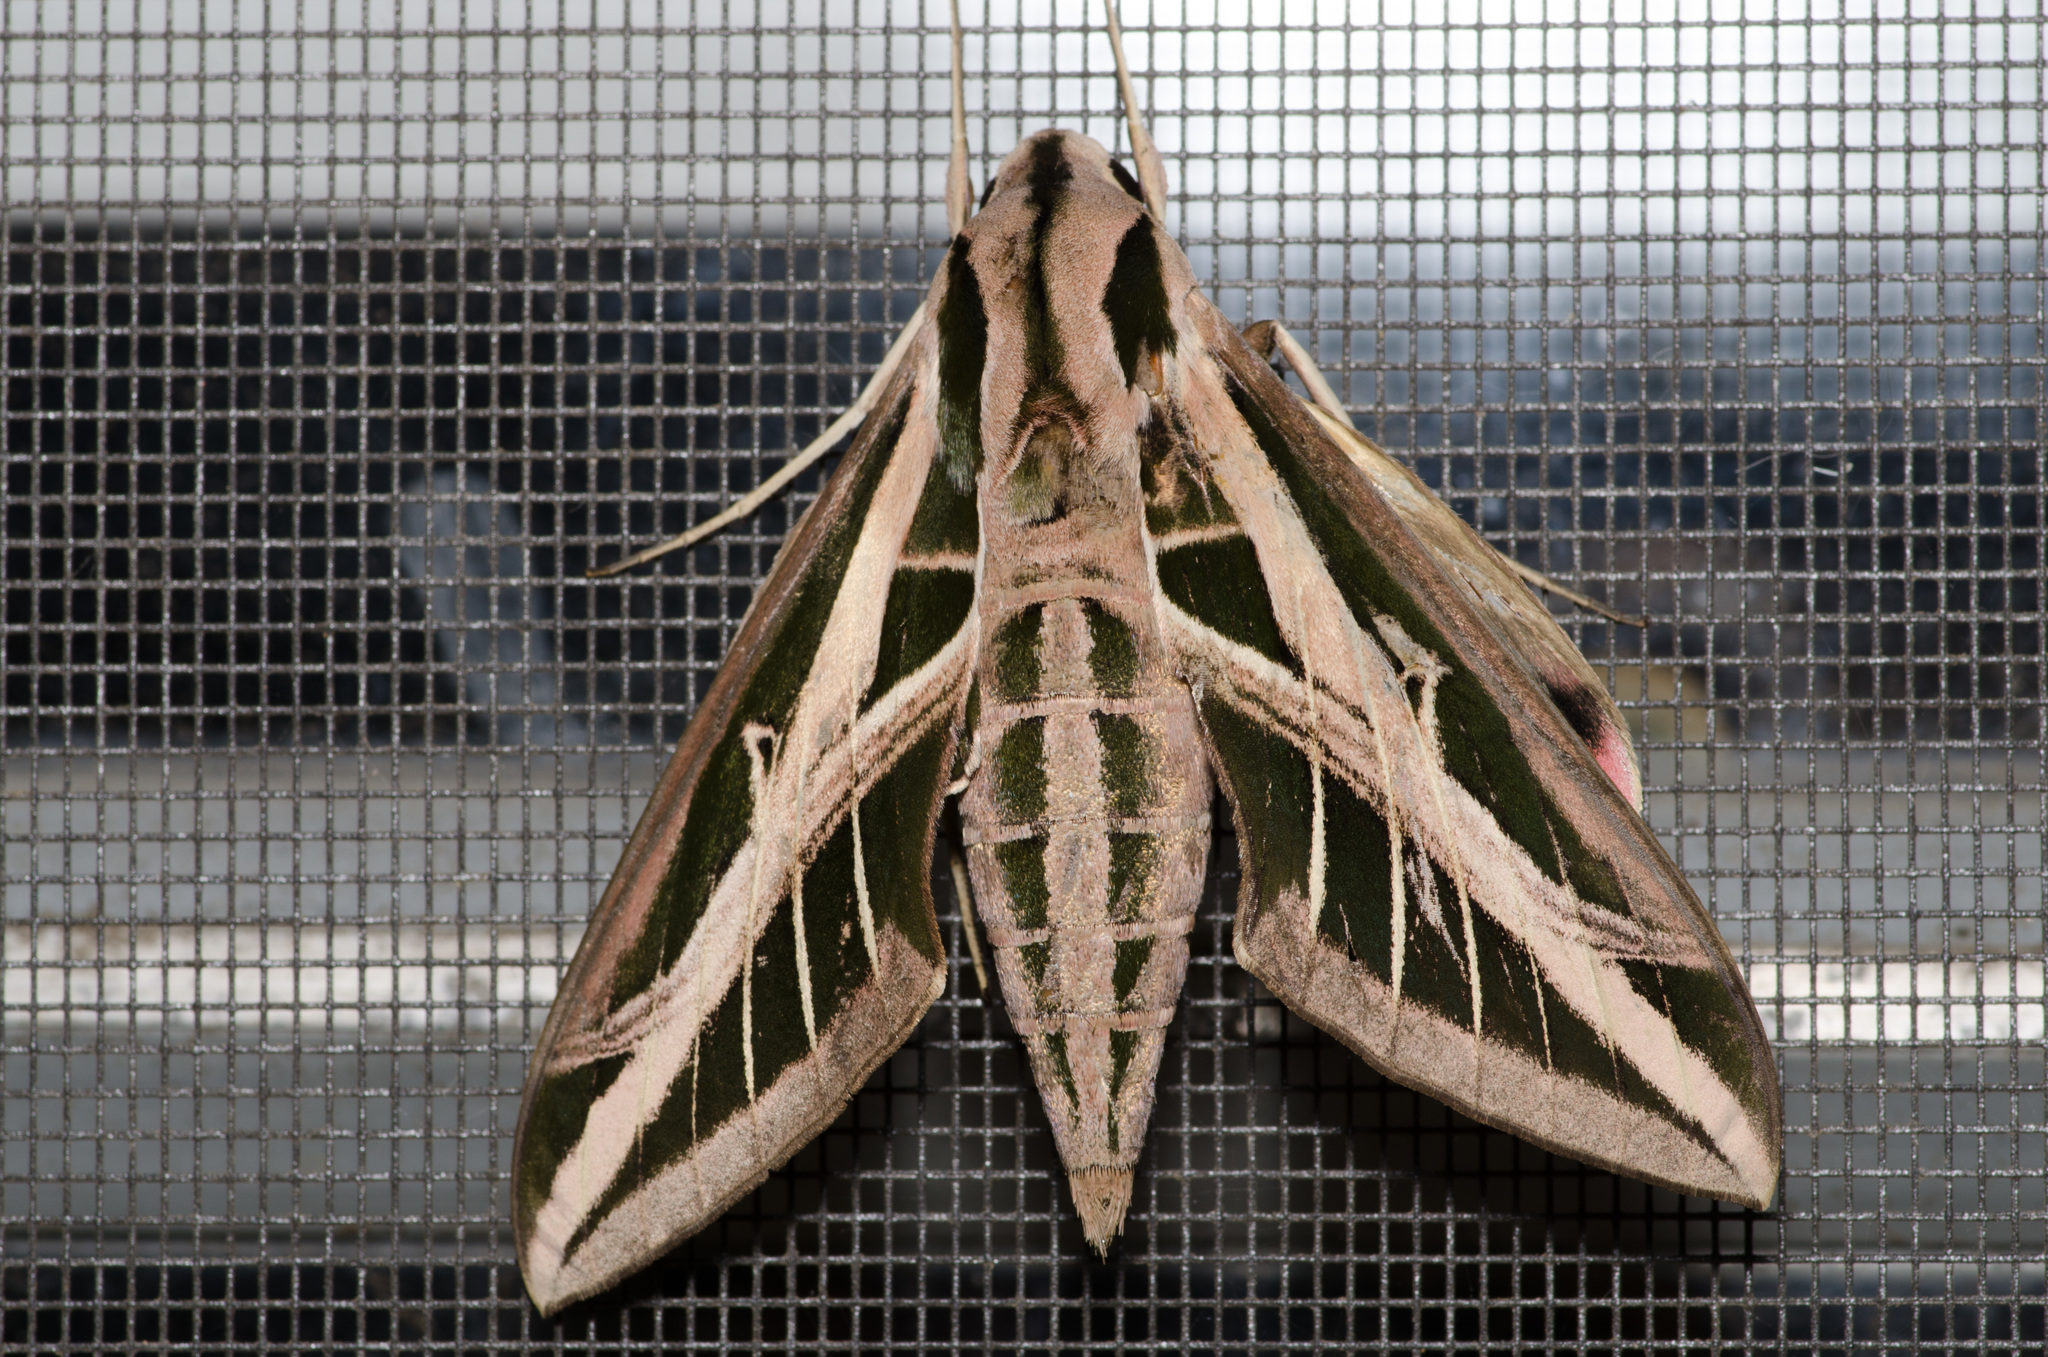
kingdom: Animalia
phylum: Arthropoda
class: Insecta
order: Lepidoptera
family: Sphingidae
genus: Eumorpha
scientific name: Eumorpha fasciatus
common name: Banded sphinx
